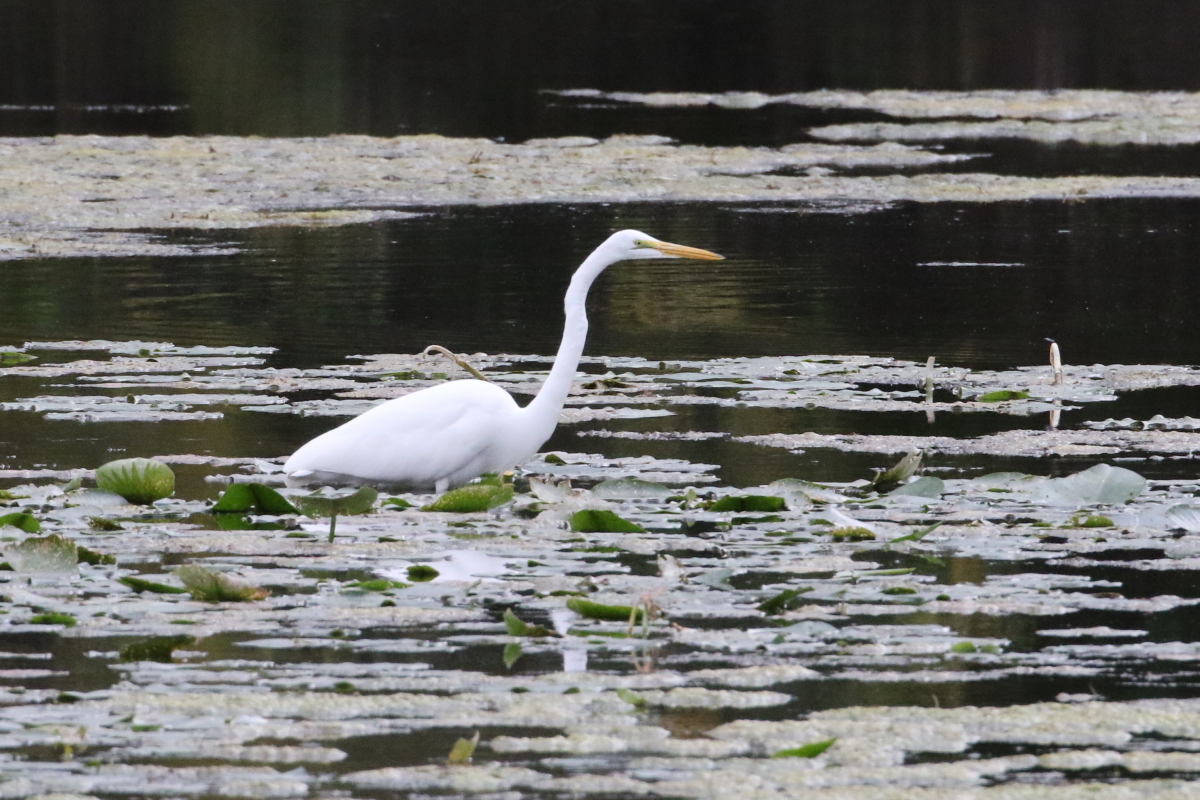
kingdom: Animalia
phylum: Chordata
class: Aves
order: Pelecaniformes
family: Ardeidae
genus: Ardea
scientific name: Ardea alba
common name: Great egret
